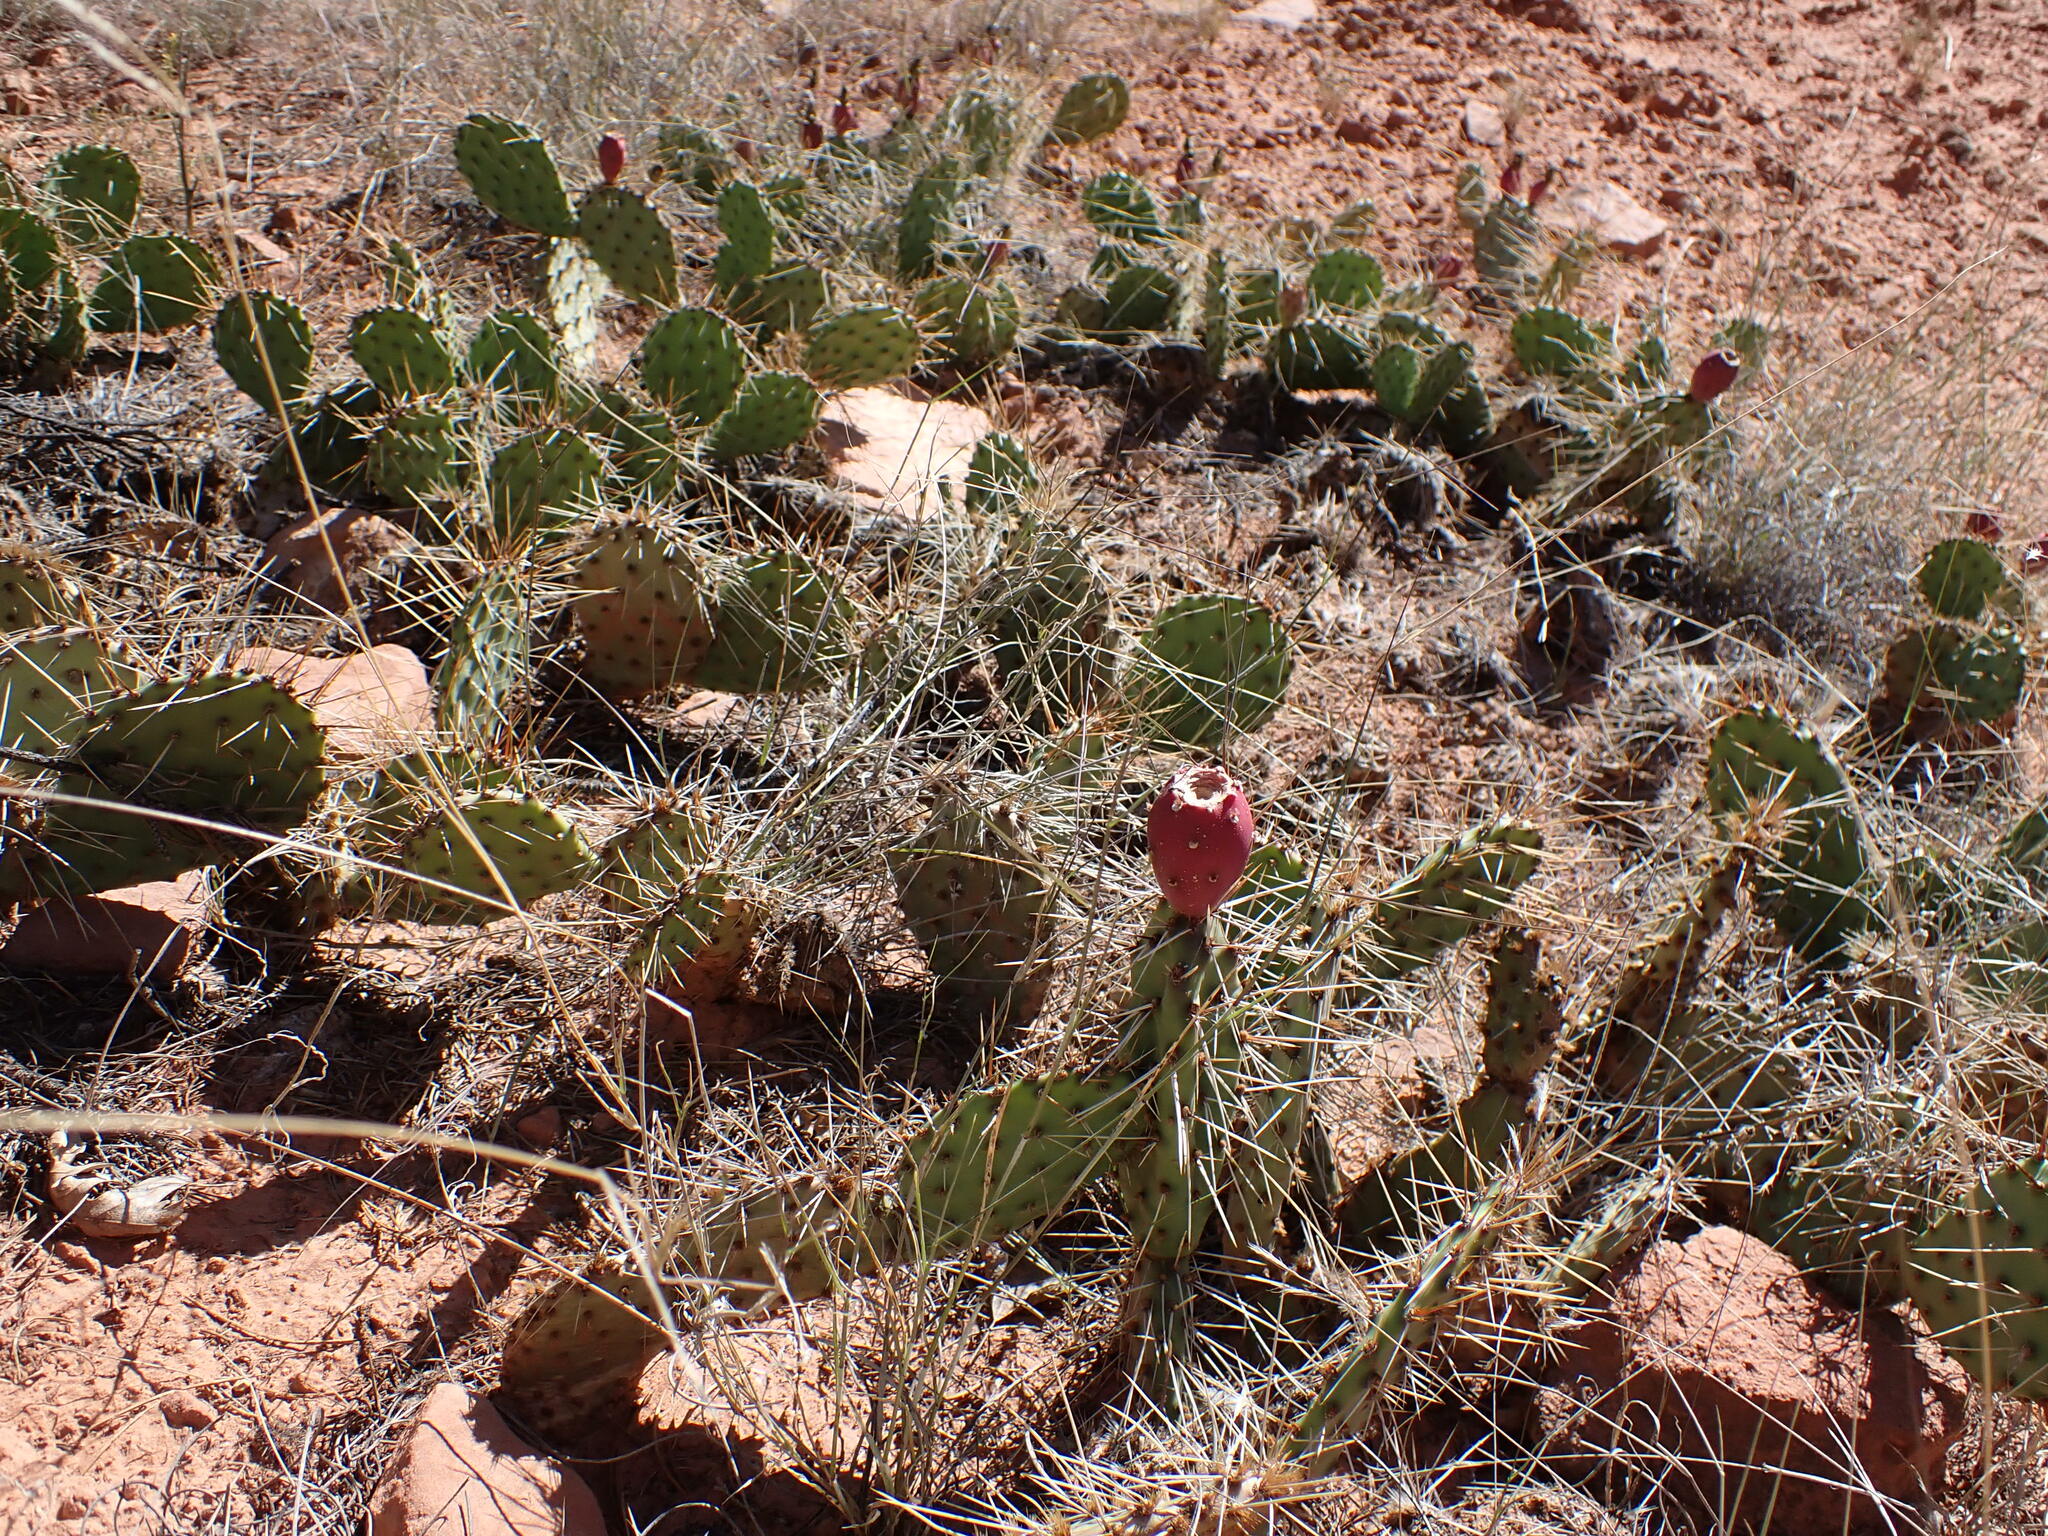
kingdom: Plantae
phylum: Tracheophyta
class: Magnoliopsida
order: Caryophyllales
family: Cactaceae
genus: Opuntia
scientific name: Opuntia phaeacantha
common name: New mexico prickly-pear
